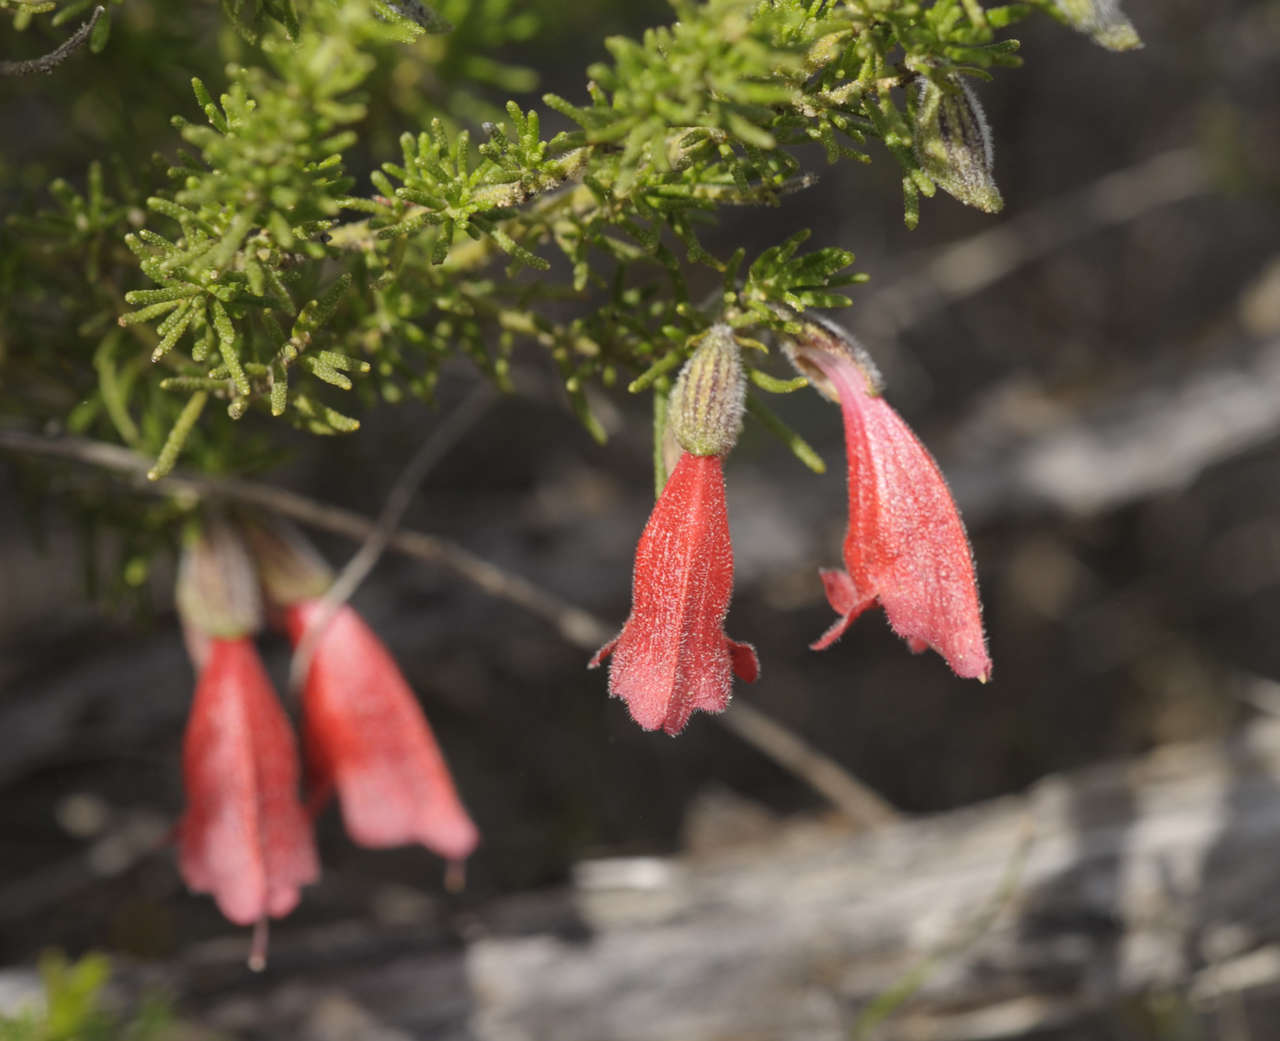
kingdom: Plantae
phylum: Tracheophyta
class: Magnoliopsida
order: Lamiales
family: Lamiaceae
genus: Prostanthera
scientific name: Prostanthera aspalathoides
